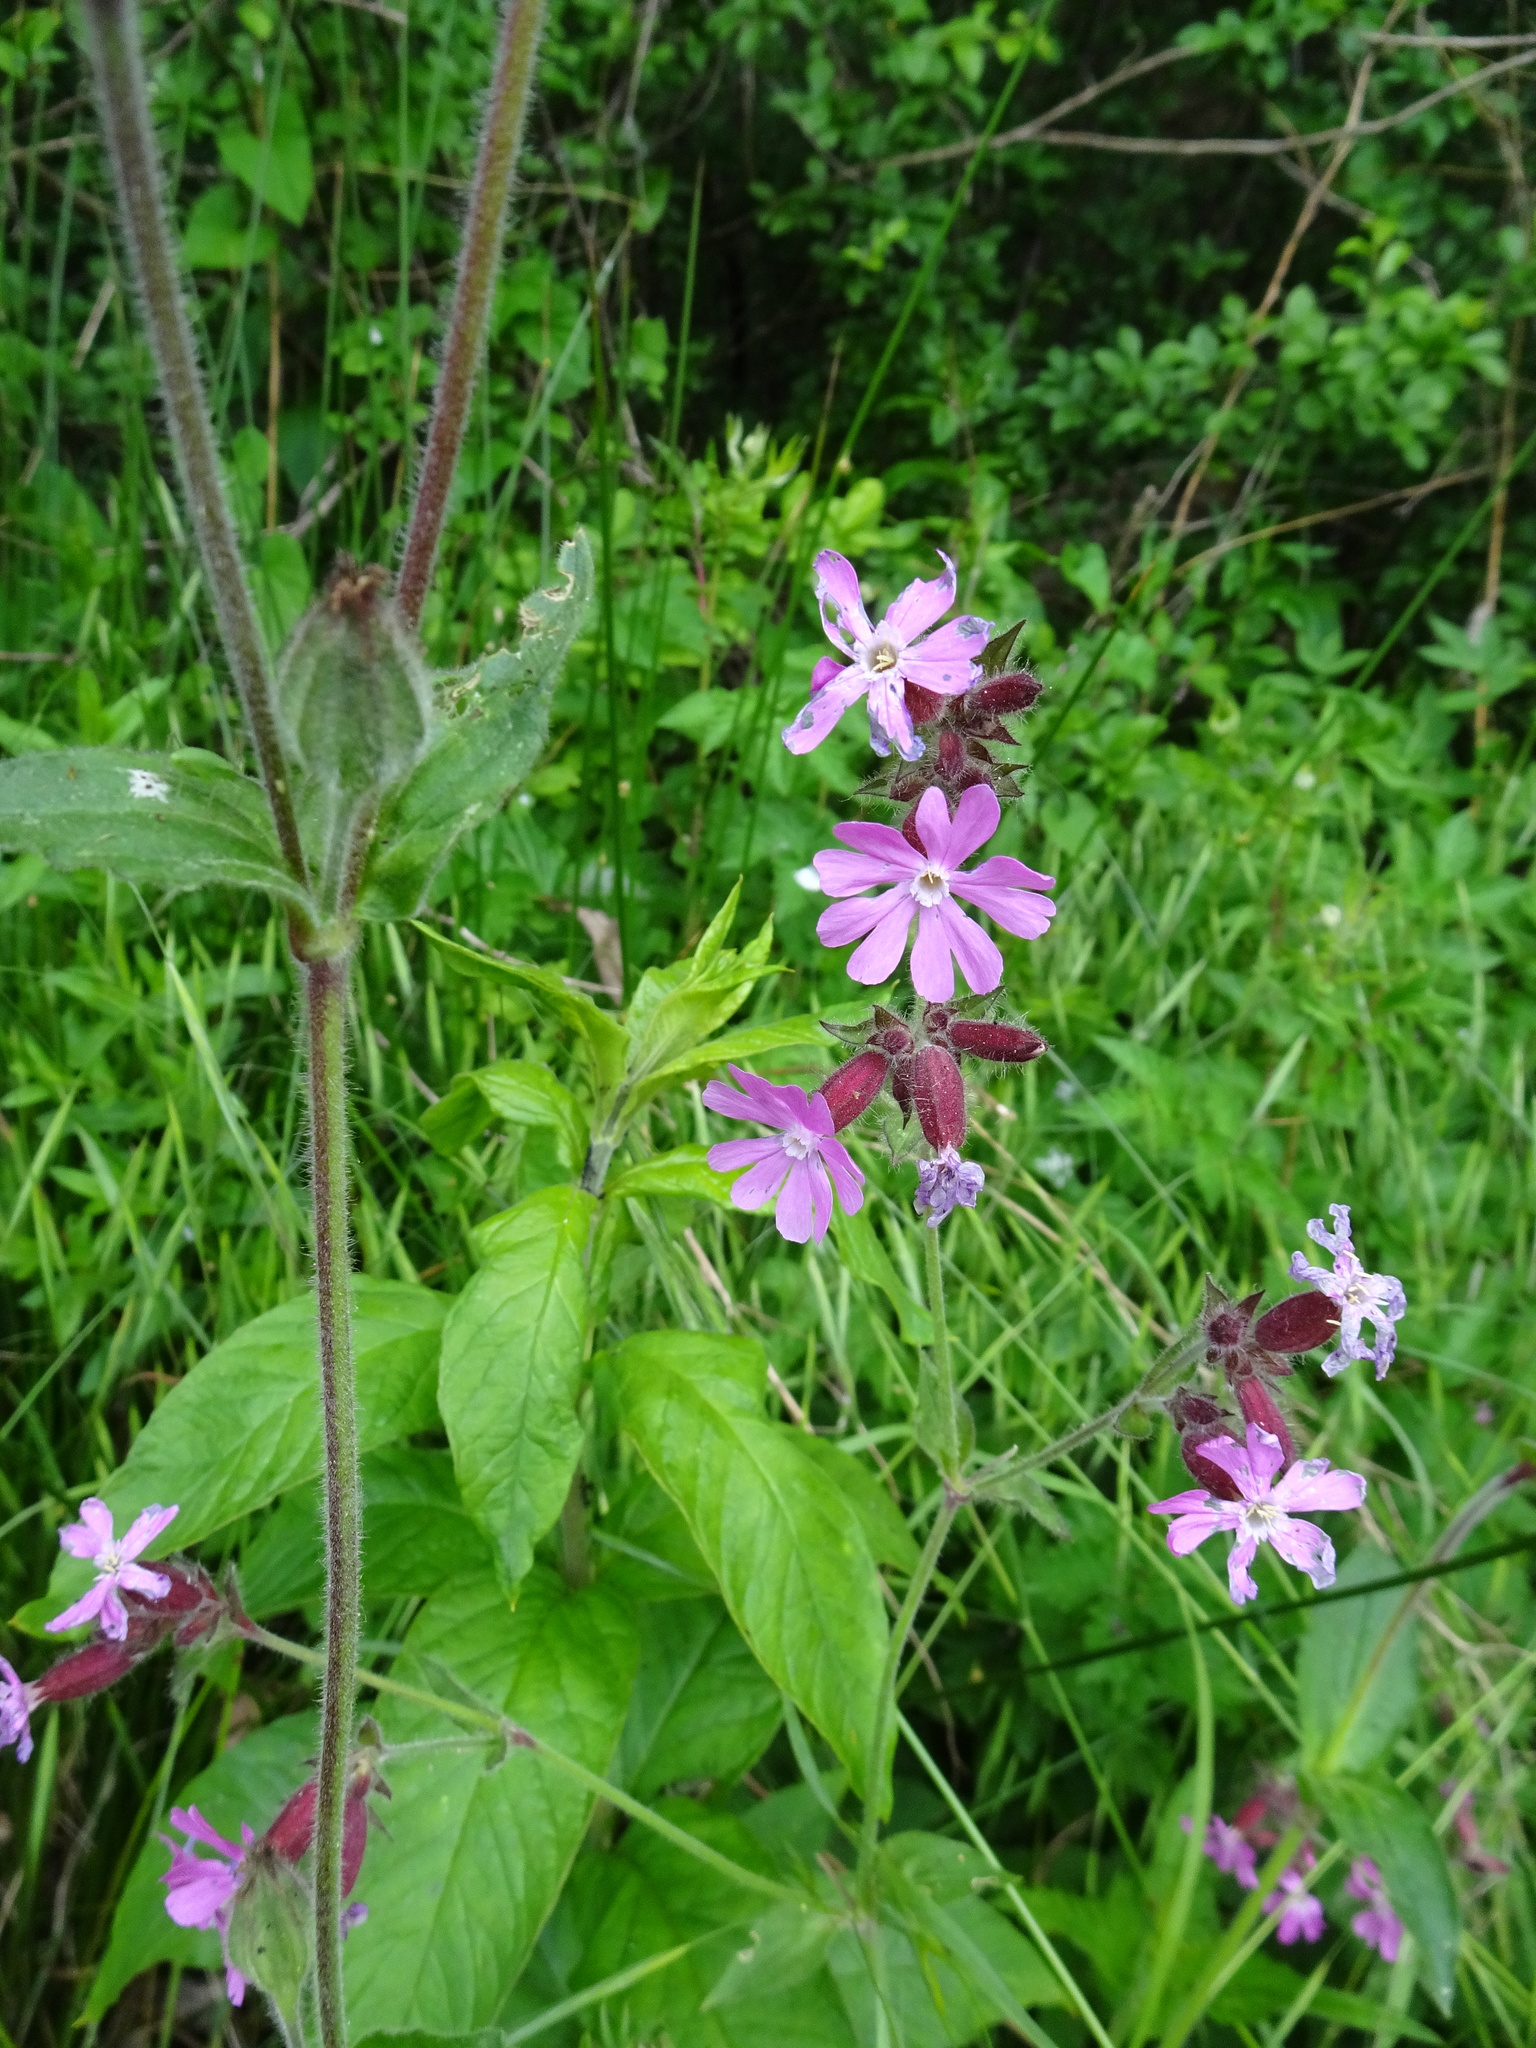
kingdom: Plantae
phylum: Tracheophyta
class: Magnoliopsida
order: Caryophyllales
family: Caryophyllaceae
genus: Silene
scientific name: Silene dioica
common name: Red campion
